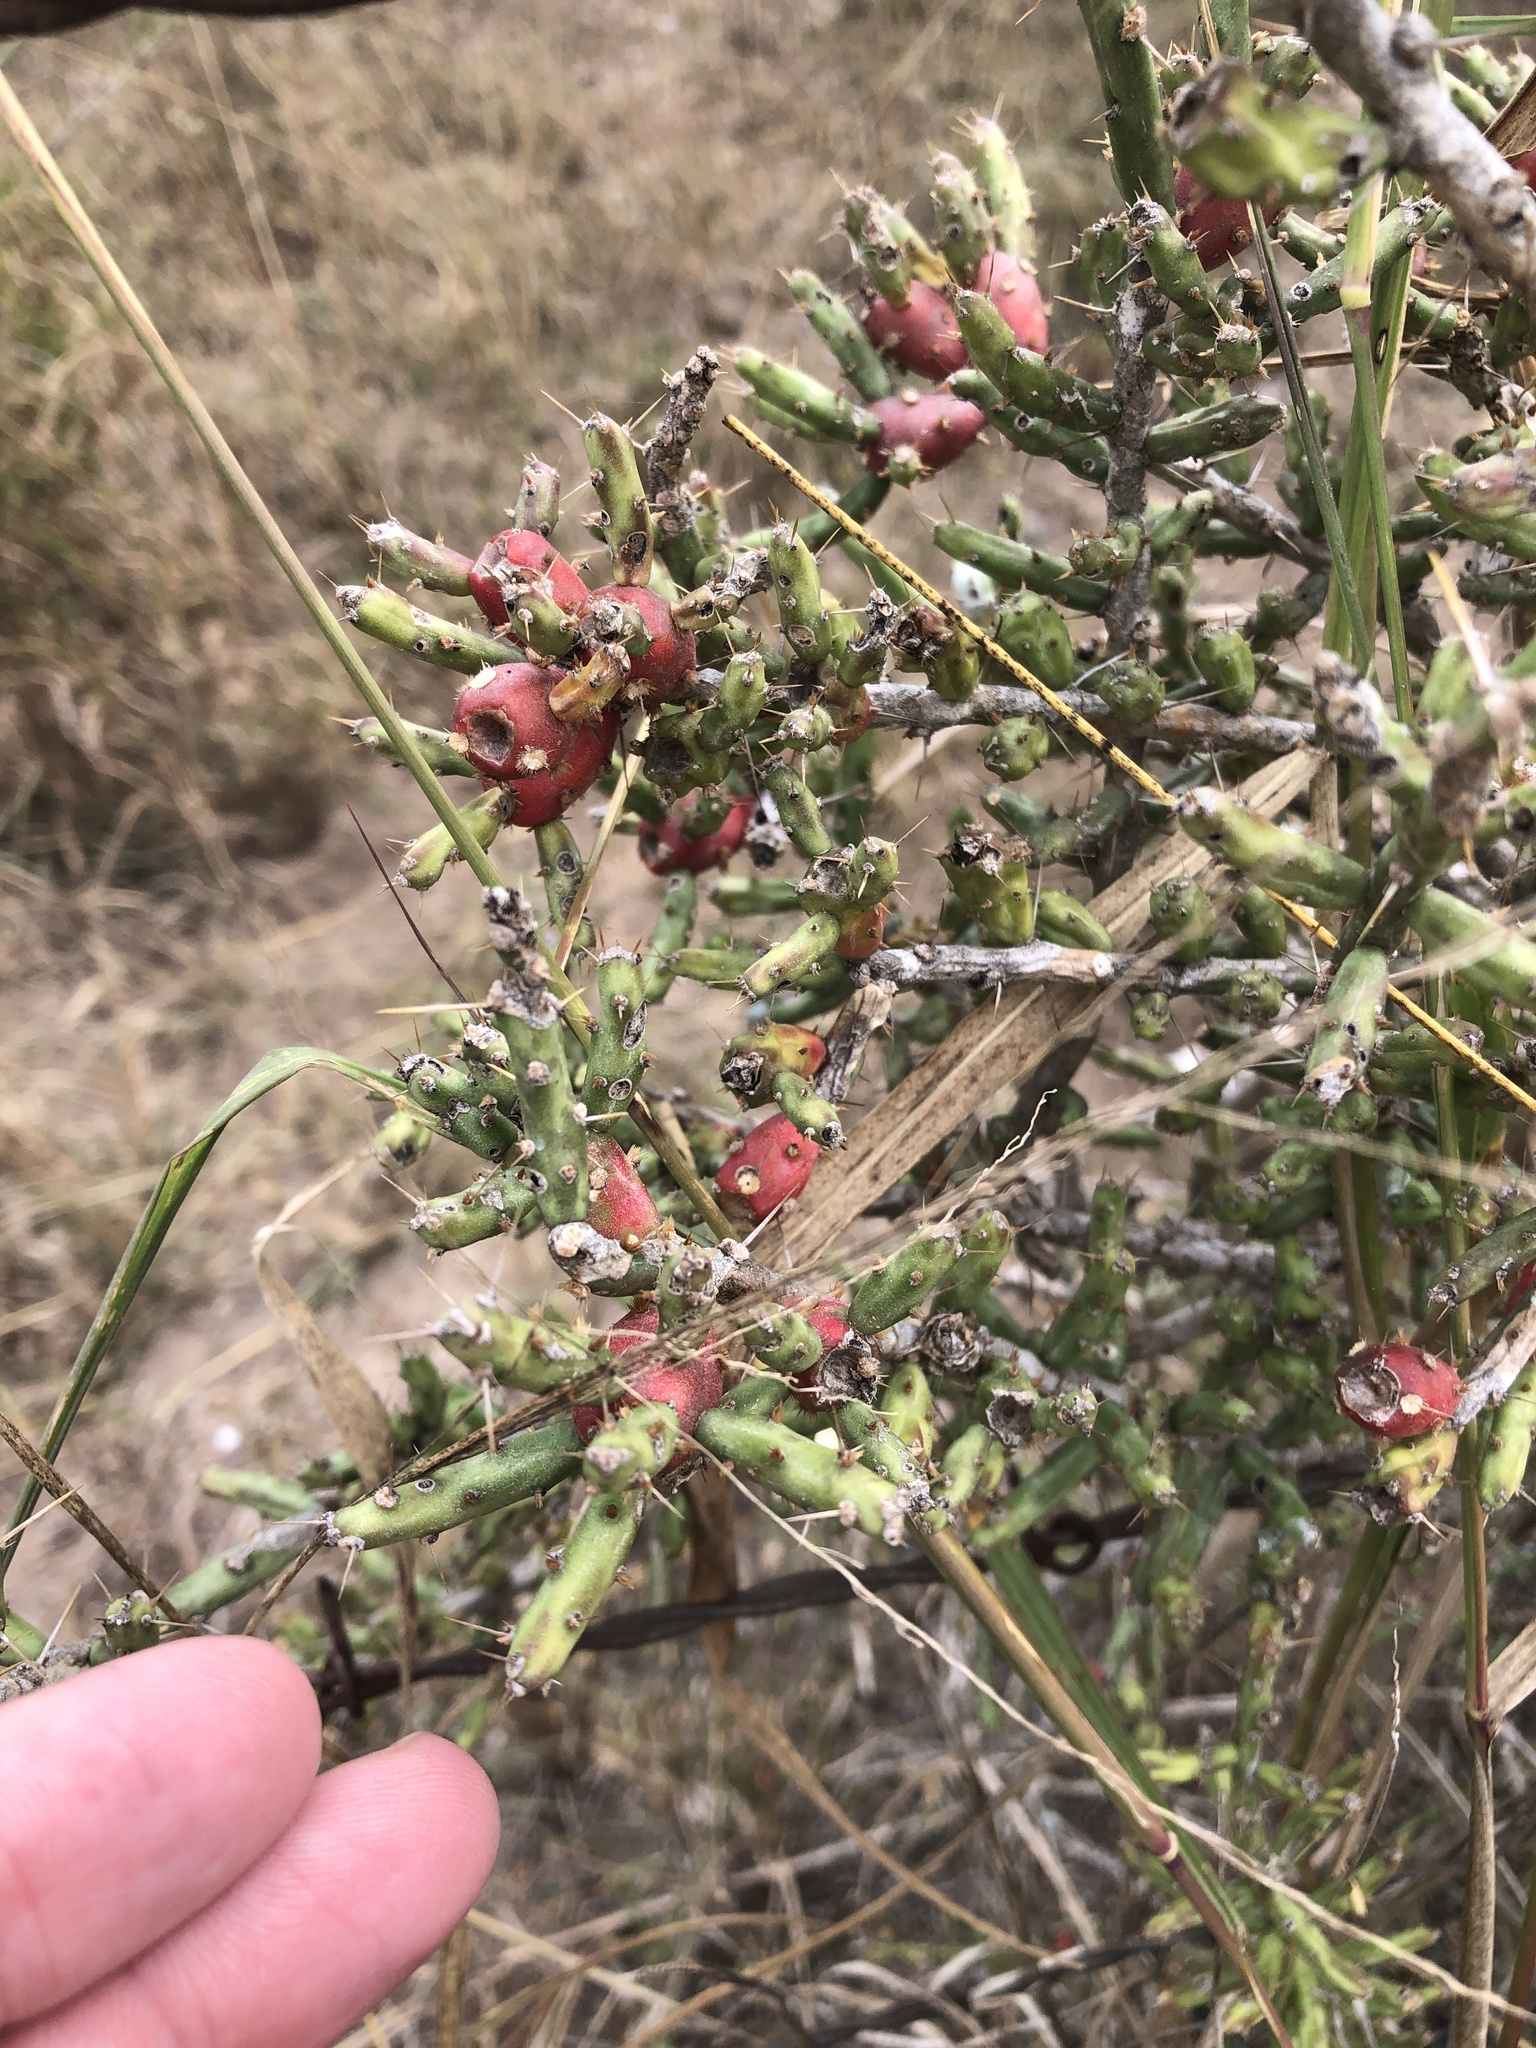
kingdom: Plantae
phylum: Tracheophyta
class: Magnoliopsida
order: Caryophyllales
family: Cactaceae
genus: Cylindropuntia
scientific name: Cylindropuntia leptocaulis
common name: Christmas cactus
